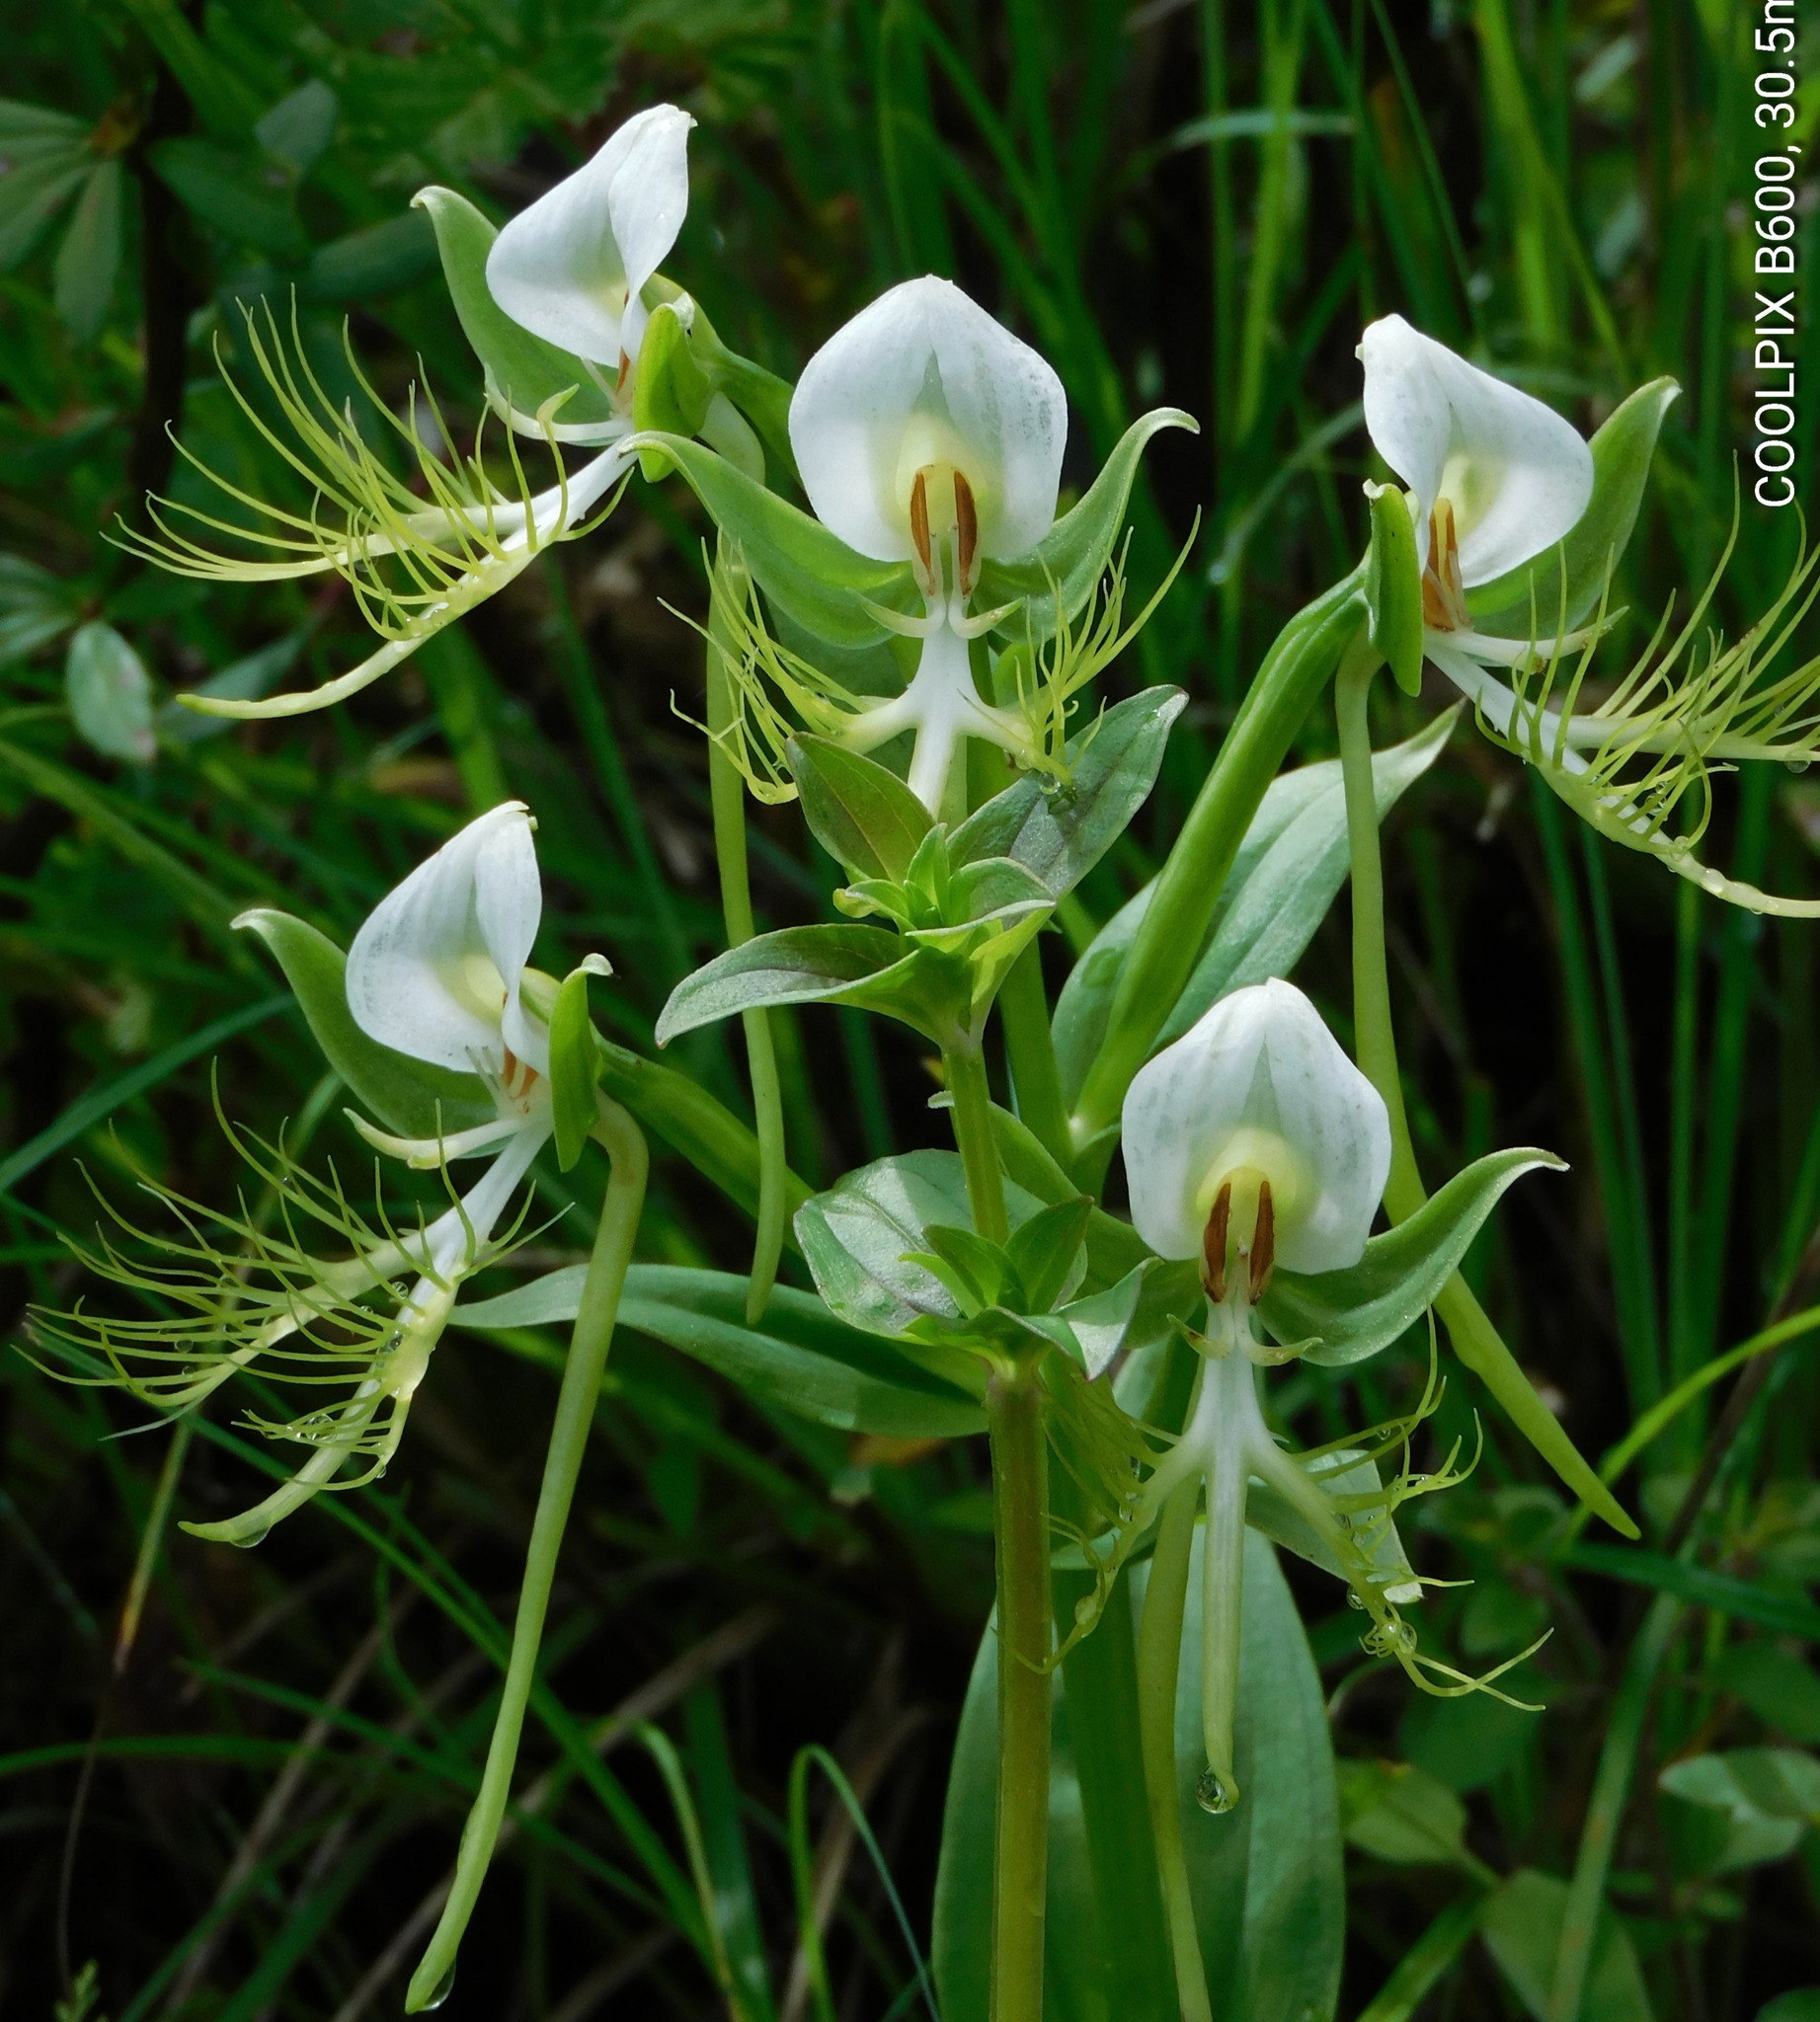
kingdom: Plantae
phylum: Tracheophyta
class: Liliopsida
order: Asparagales
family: Orchidaceae
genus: Habenaria
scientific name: Habenaria intermedia
